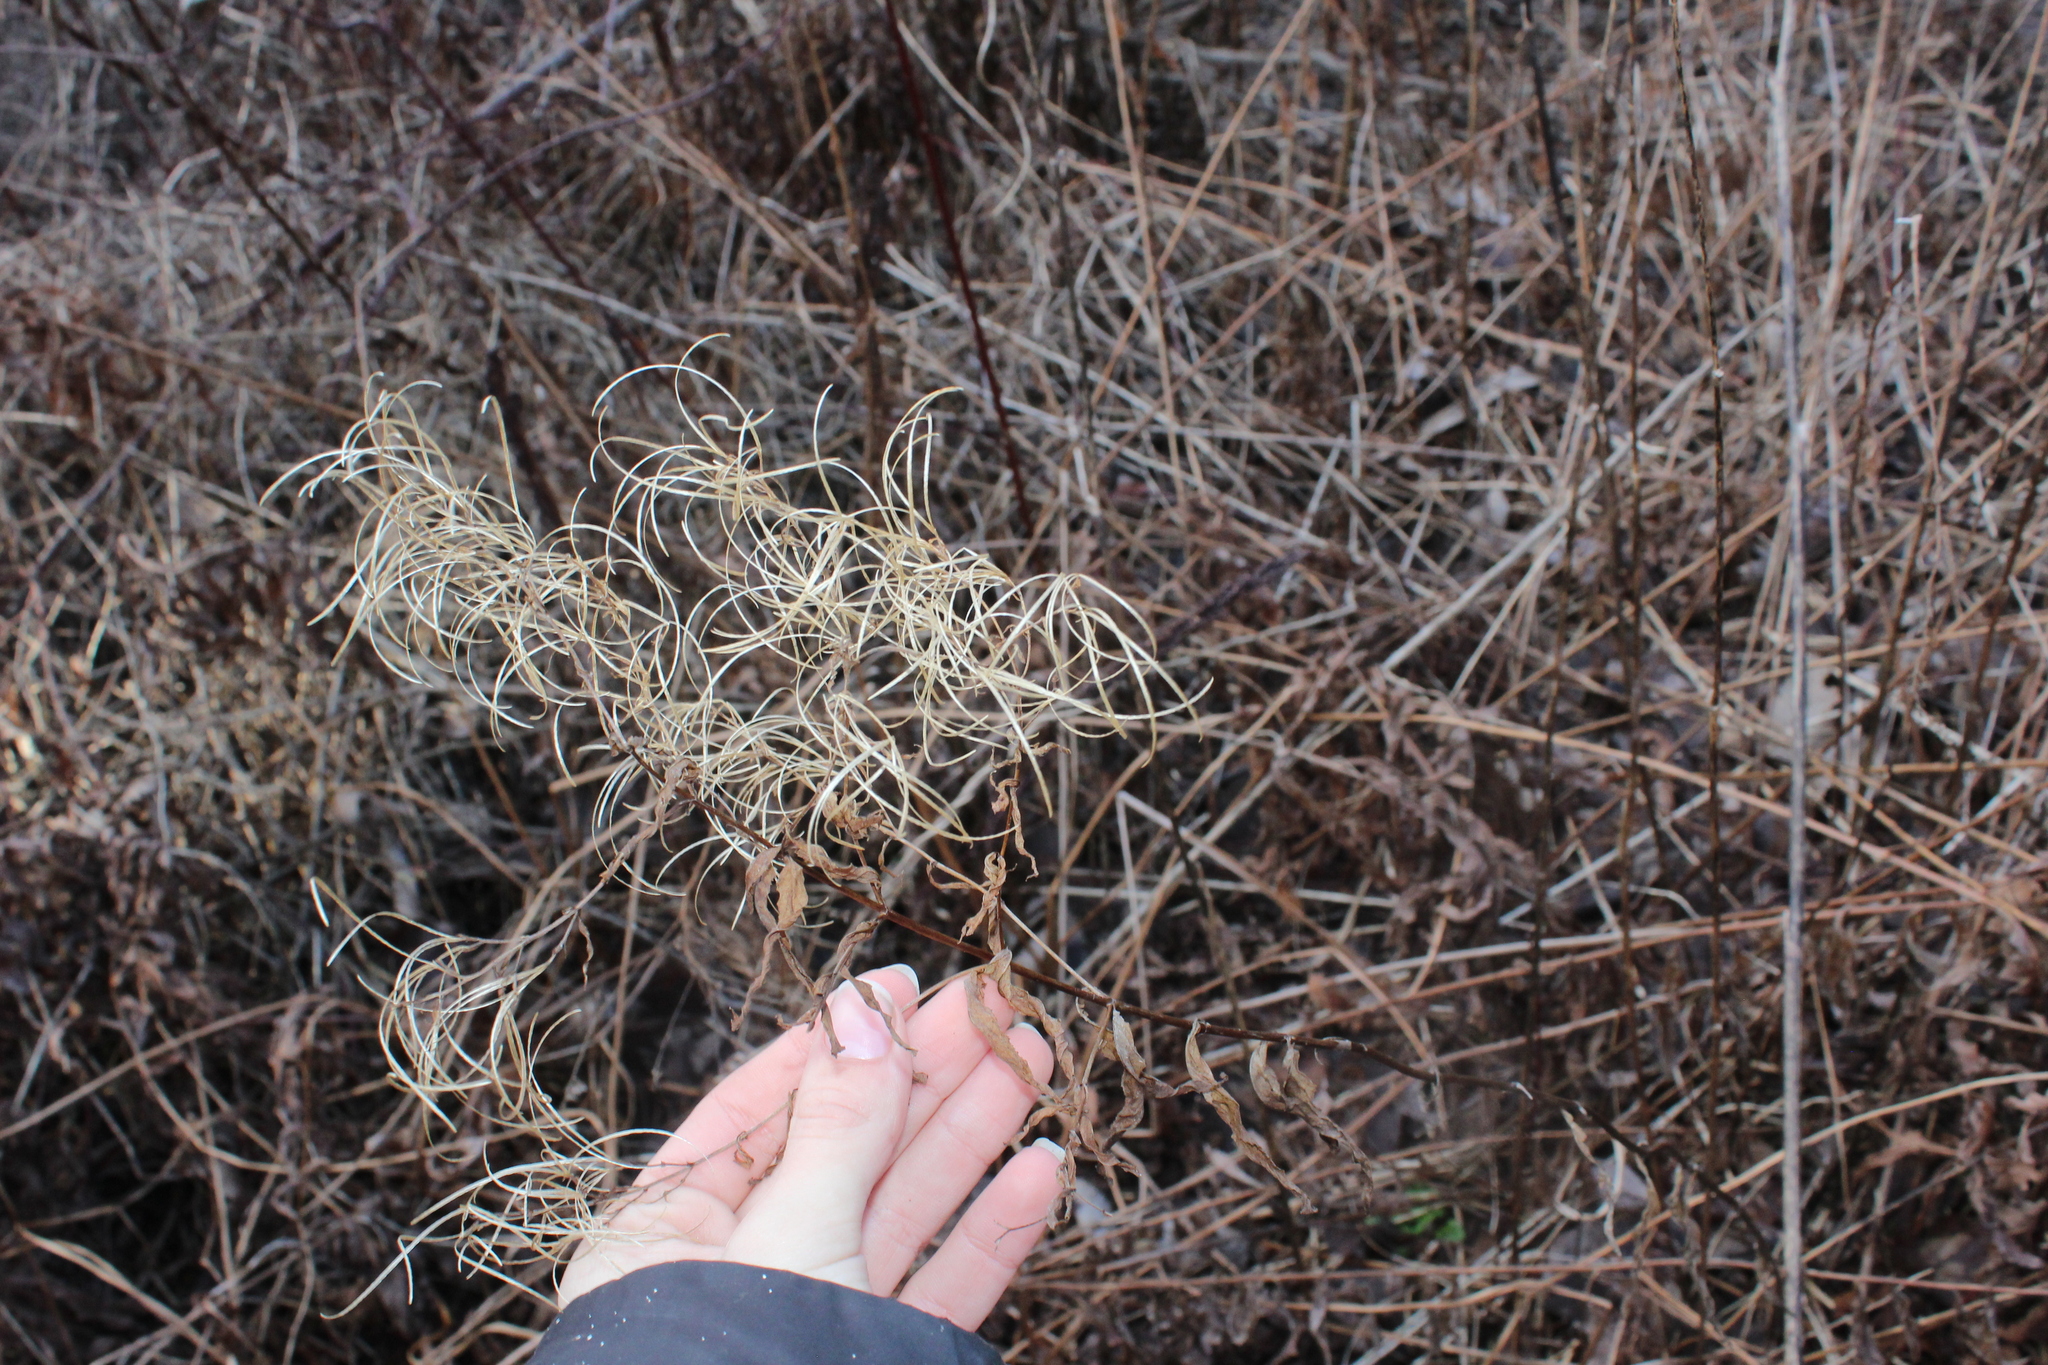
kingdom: Plantae
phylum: Tracheophyta
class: Magnoliopsida
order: Ranunculales
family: Ranunculaceae
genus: Clematis
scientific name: Clematis virginiana
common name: Virgin's-bower
